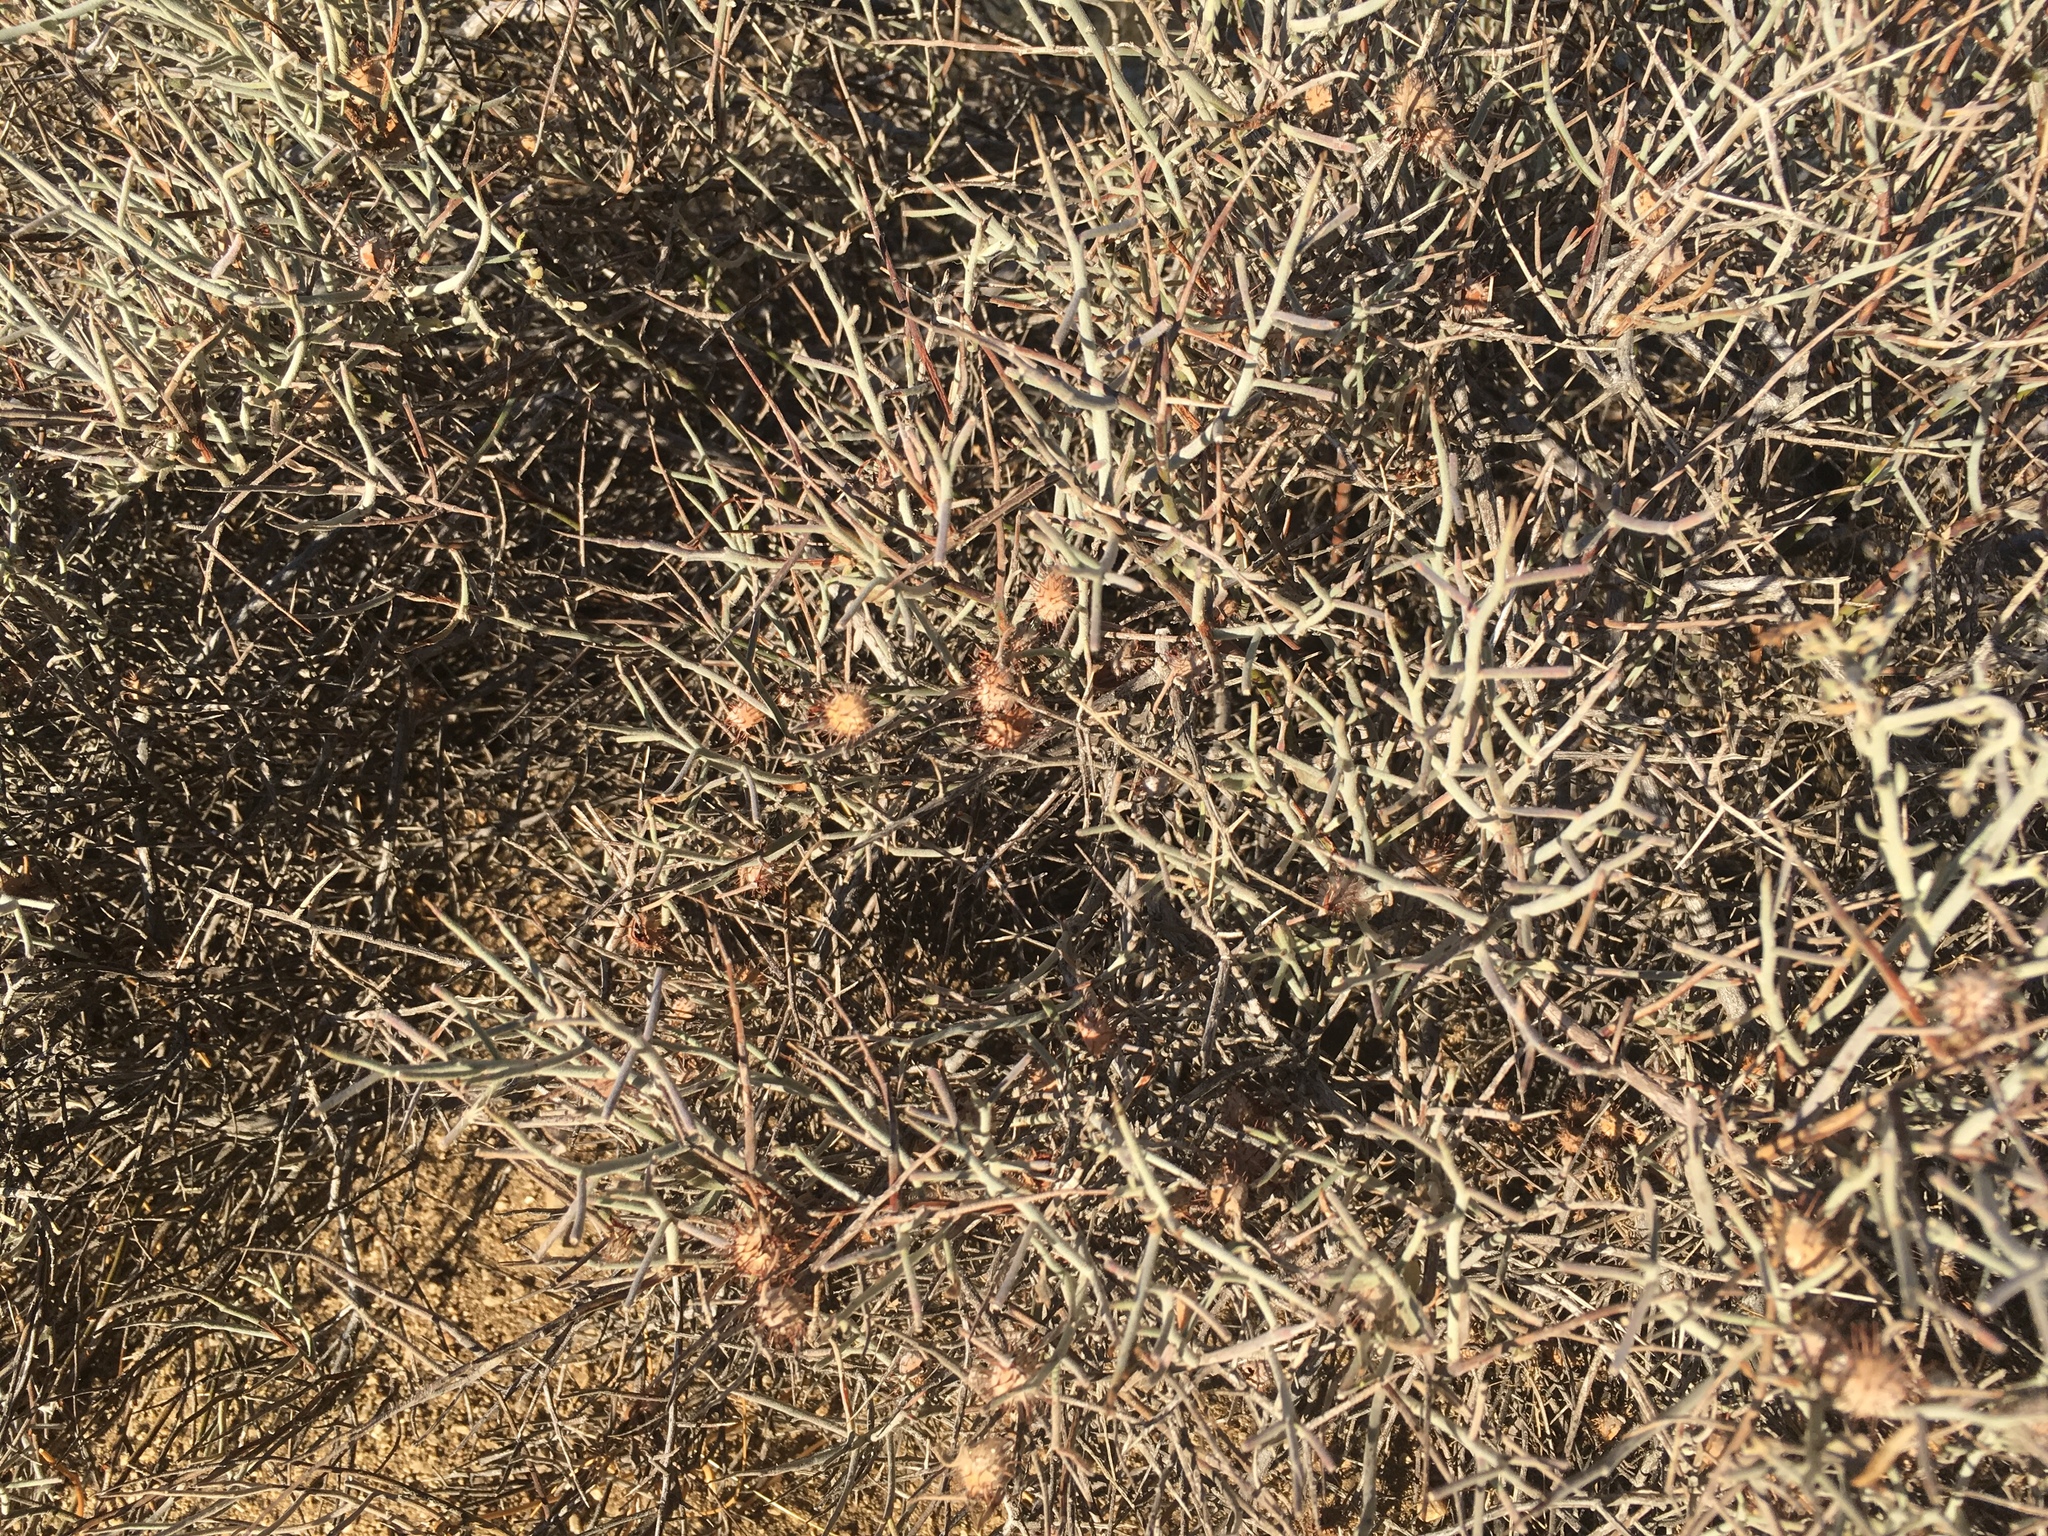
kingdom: Plantae
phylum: Tracheophyta
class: Magnoliopsida
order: Zygophyllales
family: Krameriaceae
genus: Krameria
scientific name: Krameria bicolor
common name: White ratany
